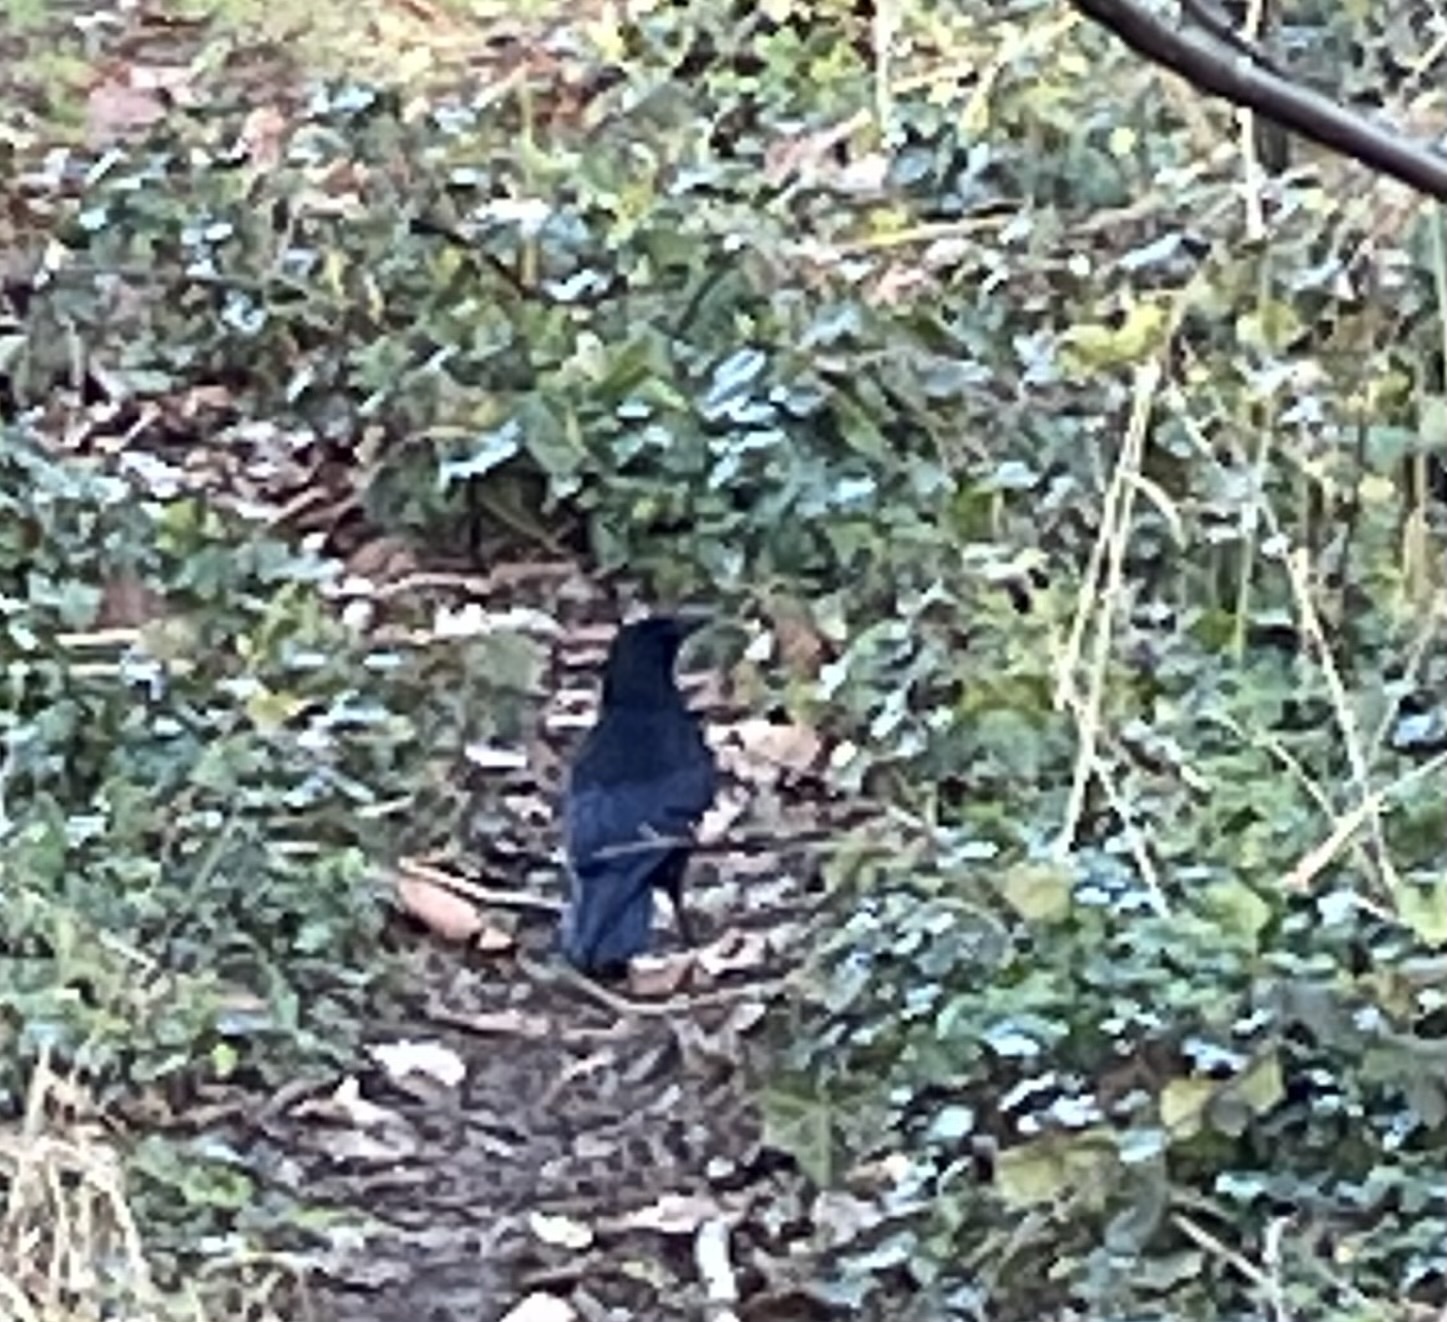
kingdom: Animalia
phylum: Chordata
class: Aves
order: Passeriformes
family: Corvidae
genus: Corvus
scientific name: Corvus corone
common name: Carrion crow
